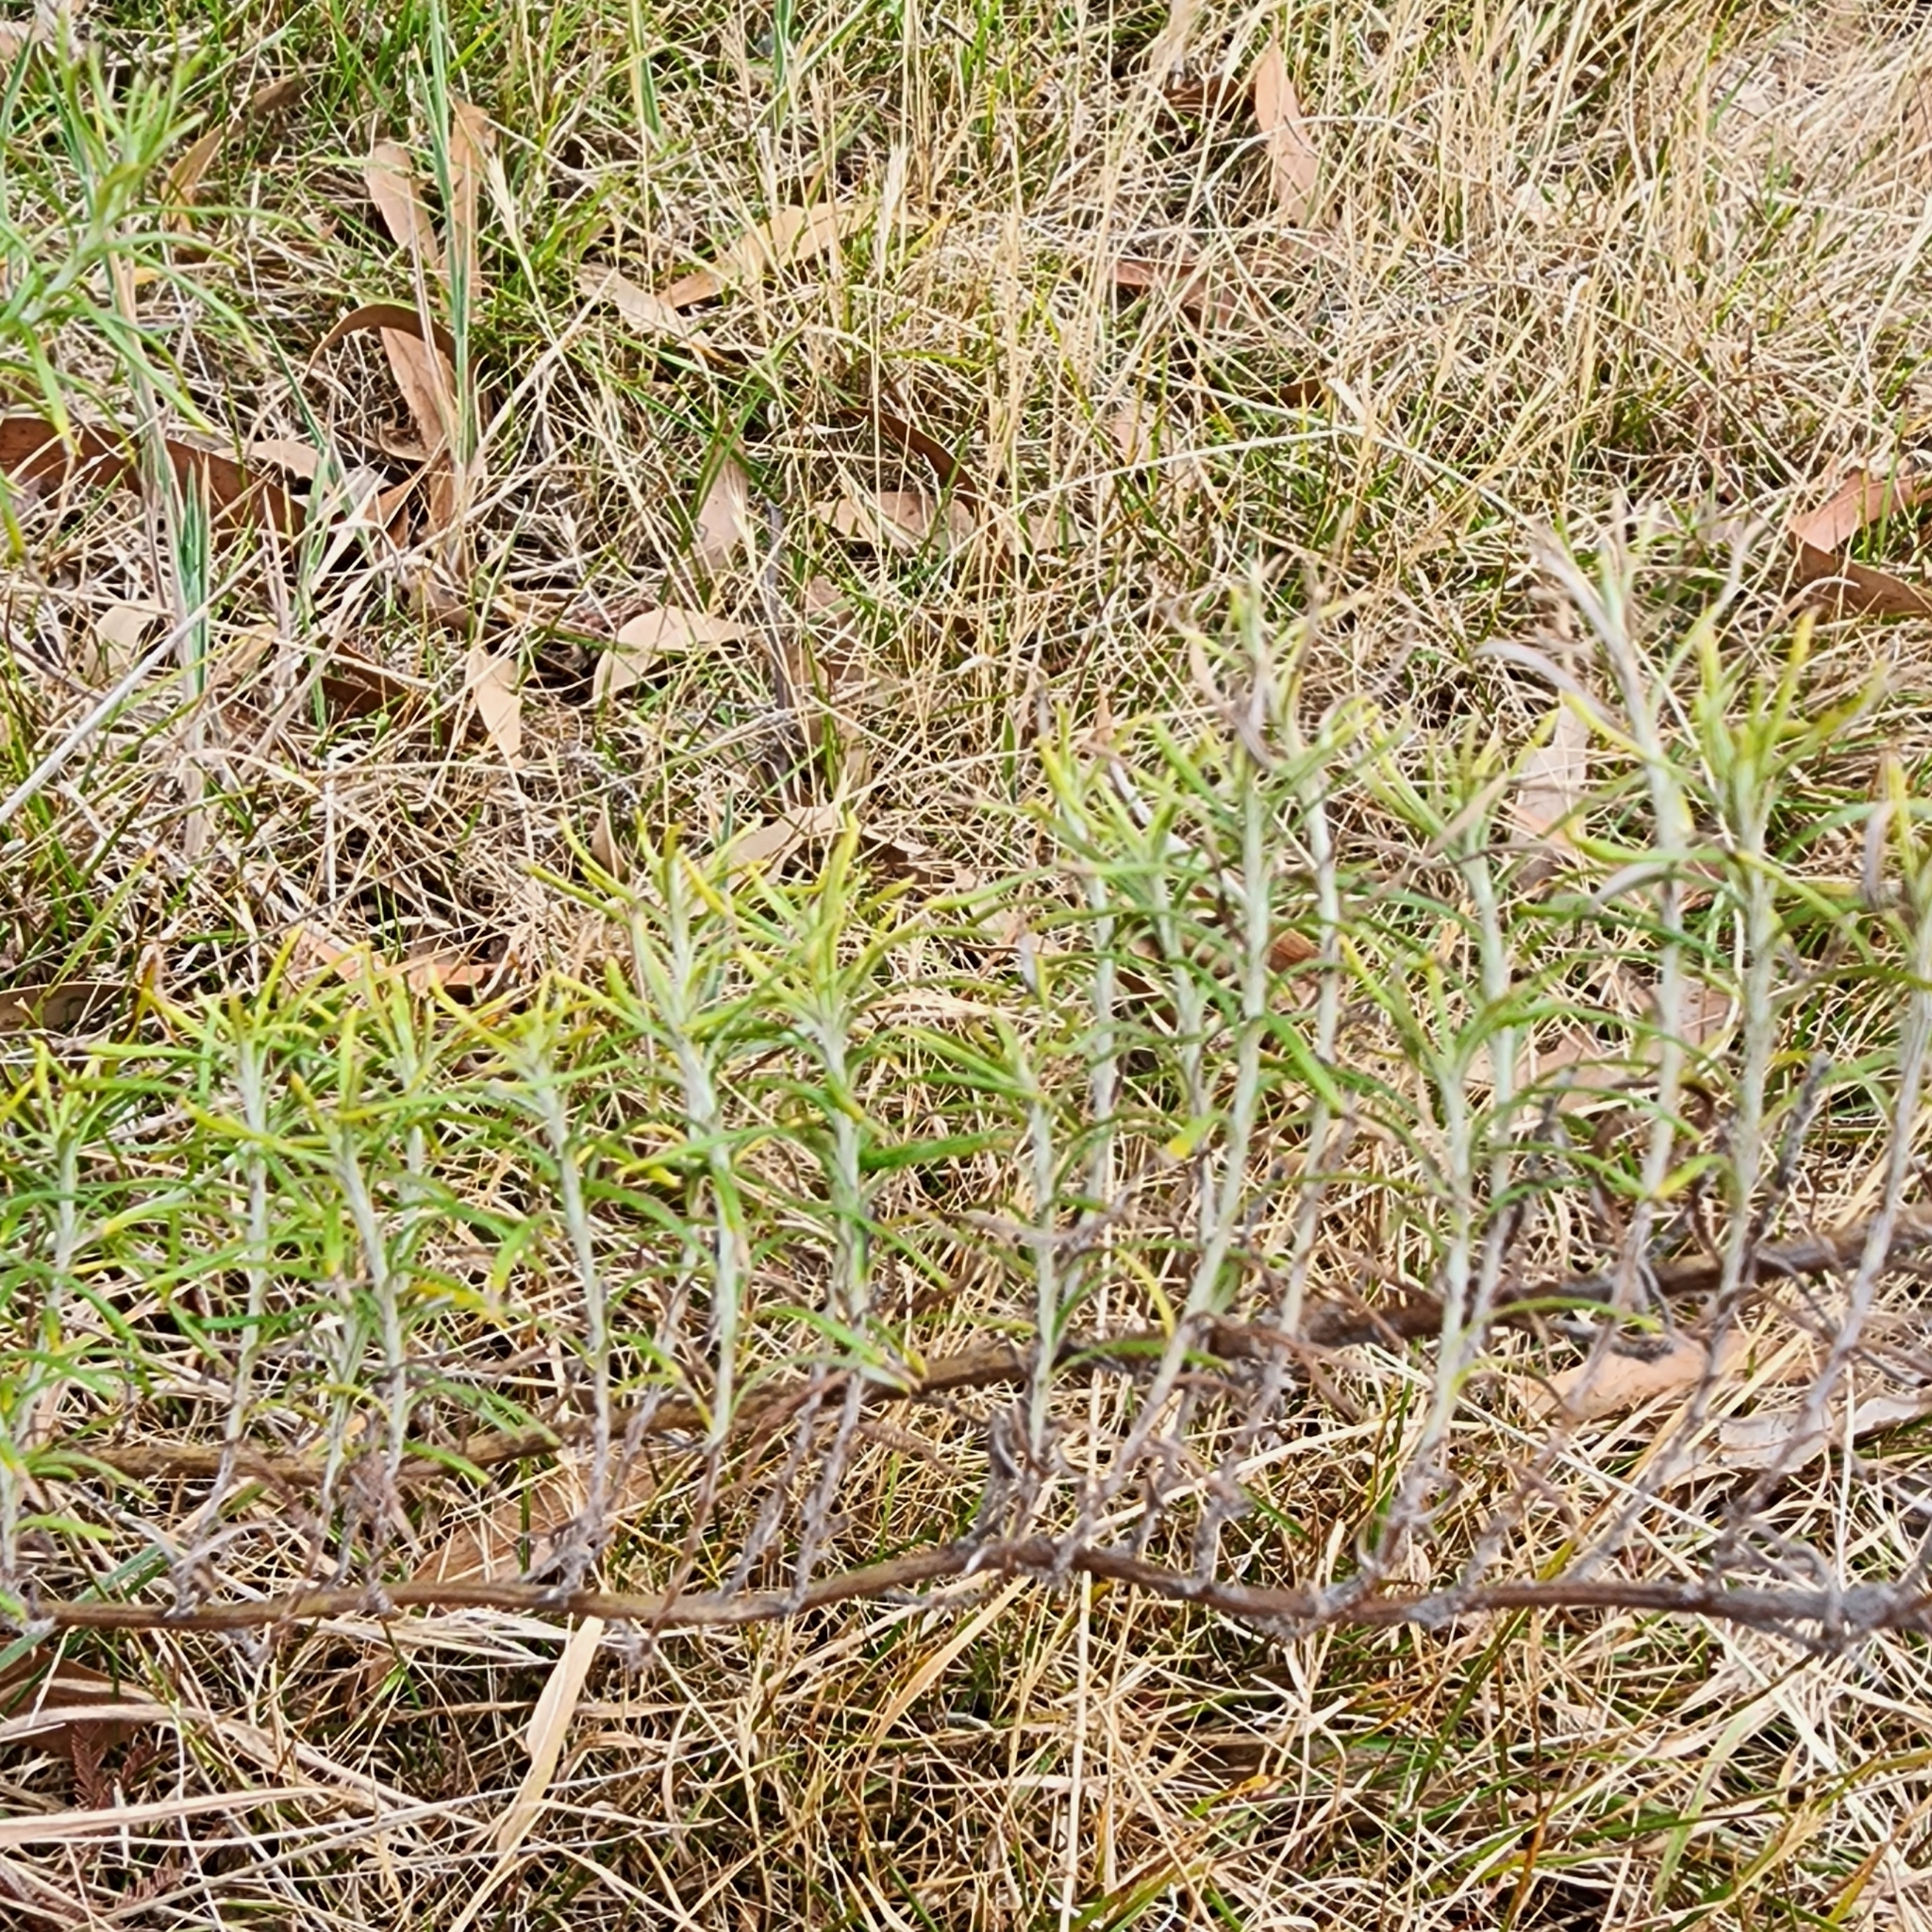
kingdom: Plantae
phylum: Tracheophyta
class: Magnoliopsida
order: Asterales
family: Asteraceae
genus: Chrysocephalum
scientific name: Chrysocephalum semipapposum
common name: Clustered everlasting
